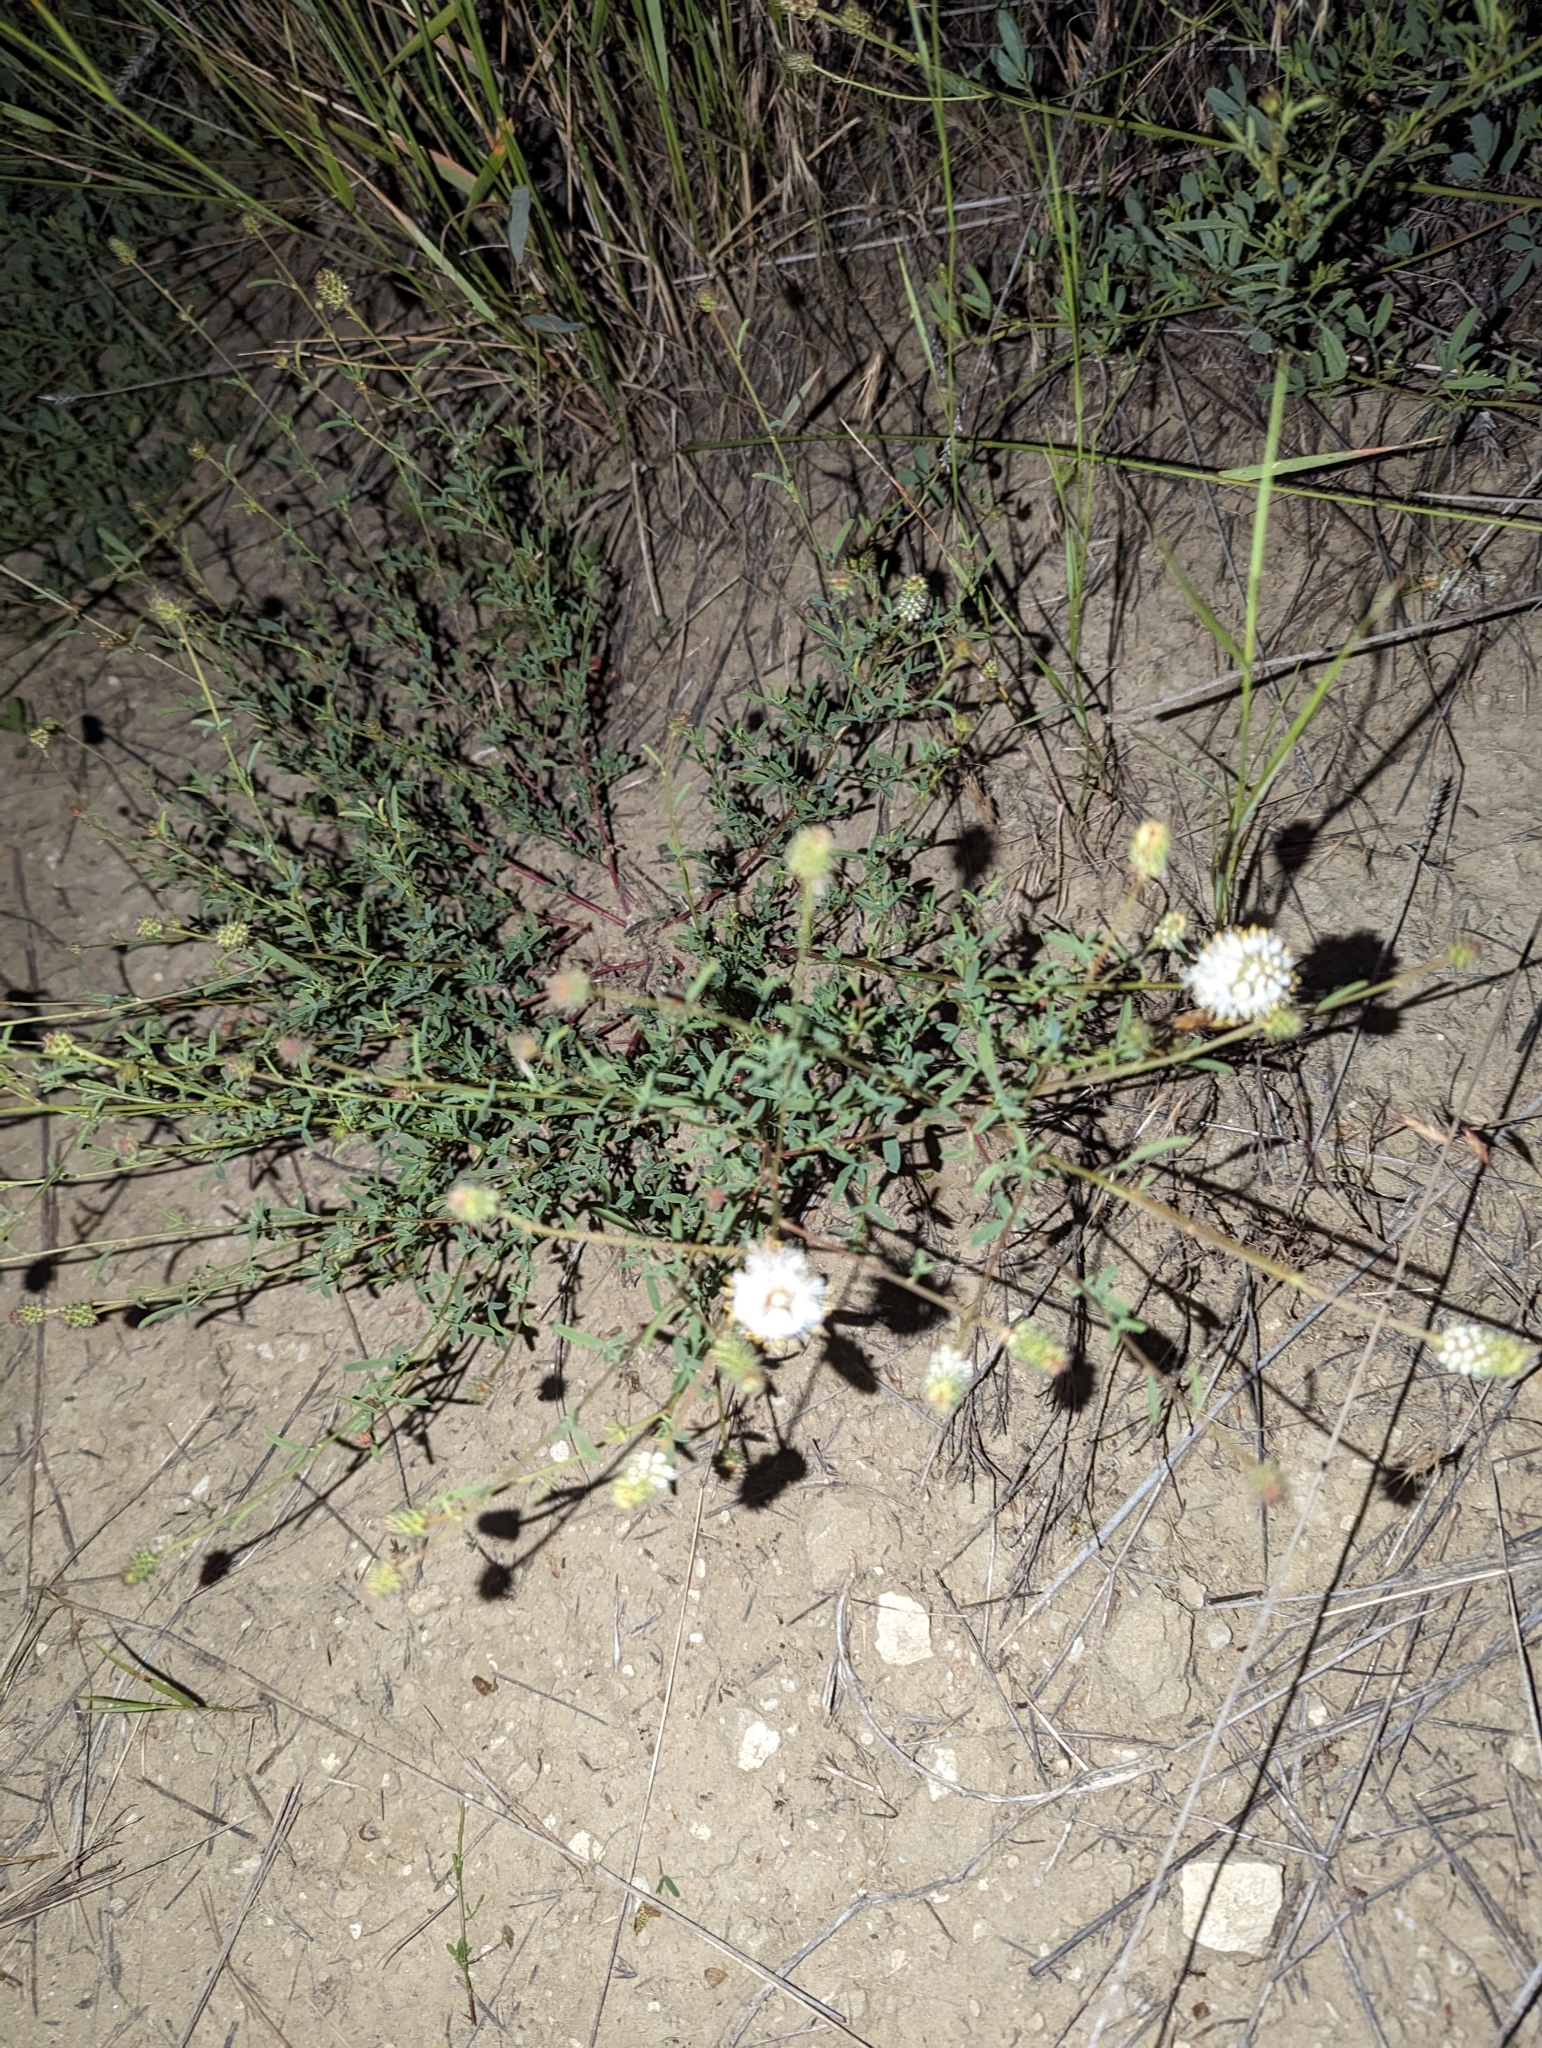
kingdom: Plantae
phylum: Tracheophyta
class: Magnoliopsida
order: Fabales
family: Fabaceae
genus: Dalea
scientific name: Dalea candida
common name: White prairie-clover
